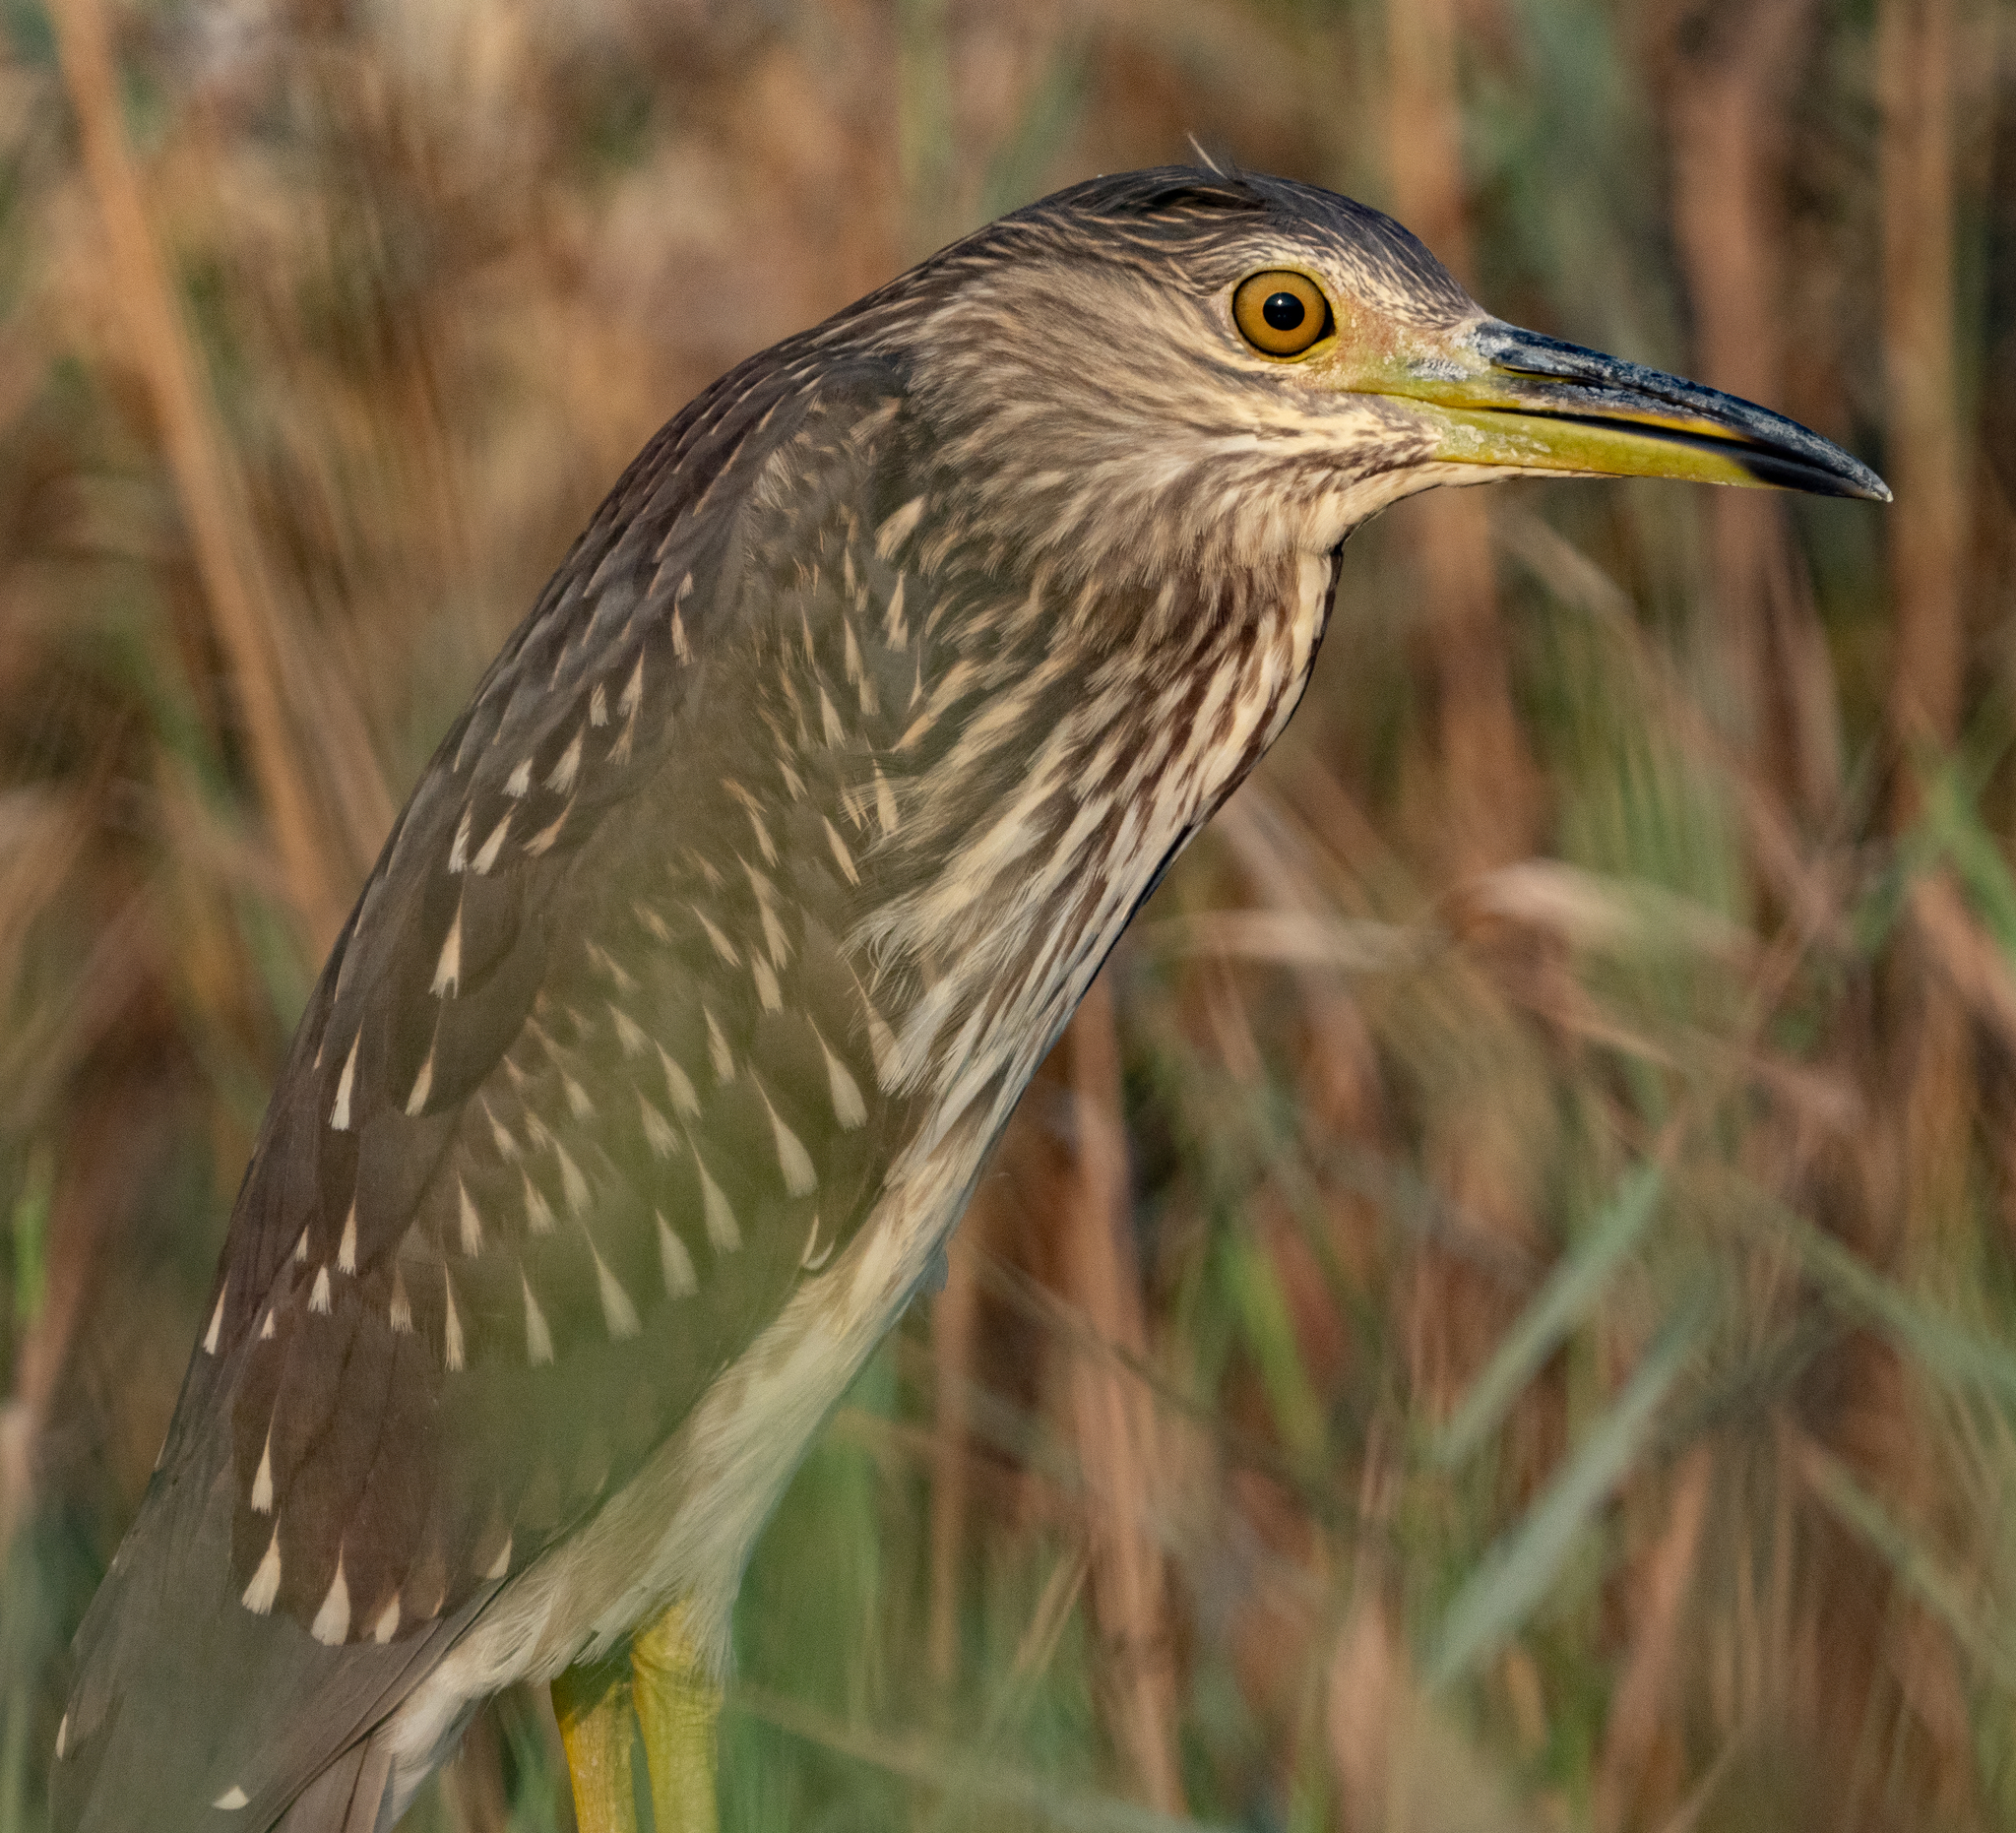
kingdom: Animalia
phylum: Chordata
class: Aves
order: Pelecaniformes
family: Ardeidae
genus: Nycticorax
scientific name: Nycticorax nycticorax
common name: Black-crowned night heron
